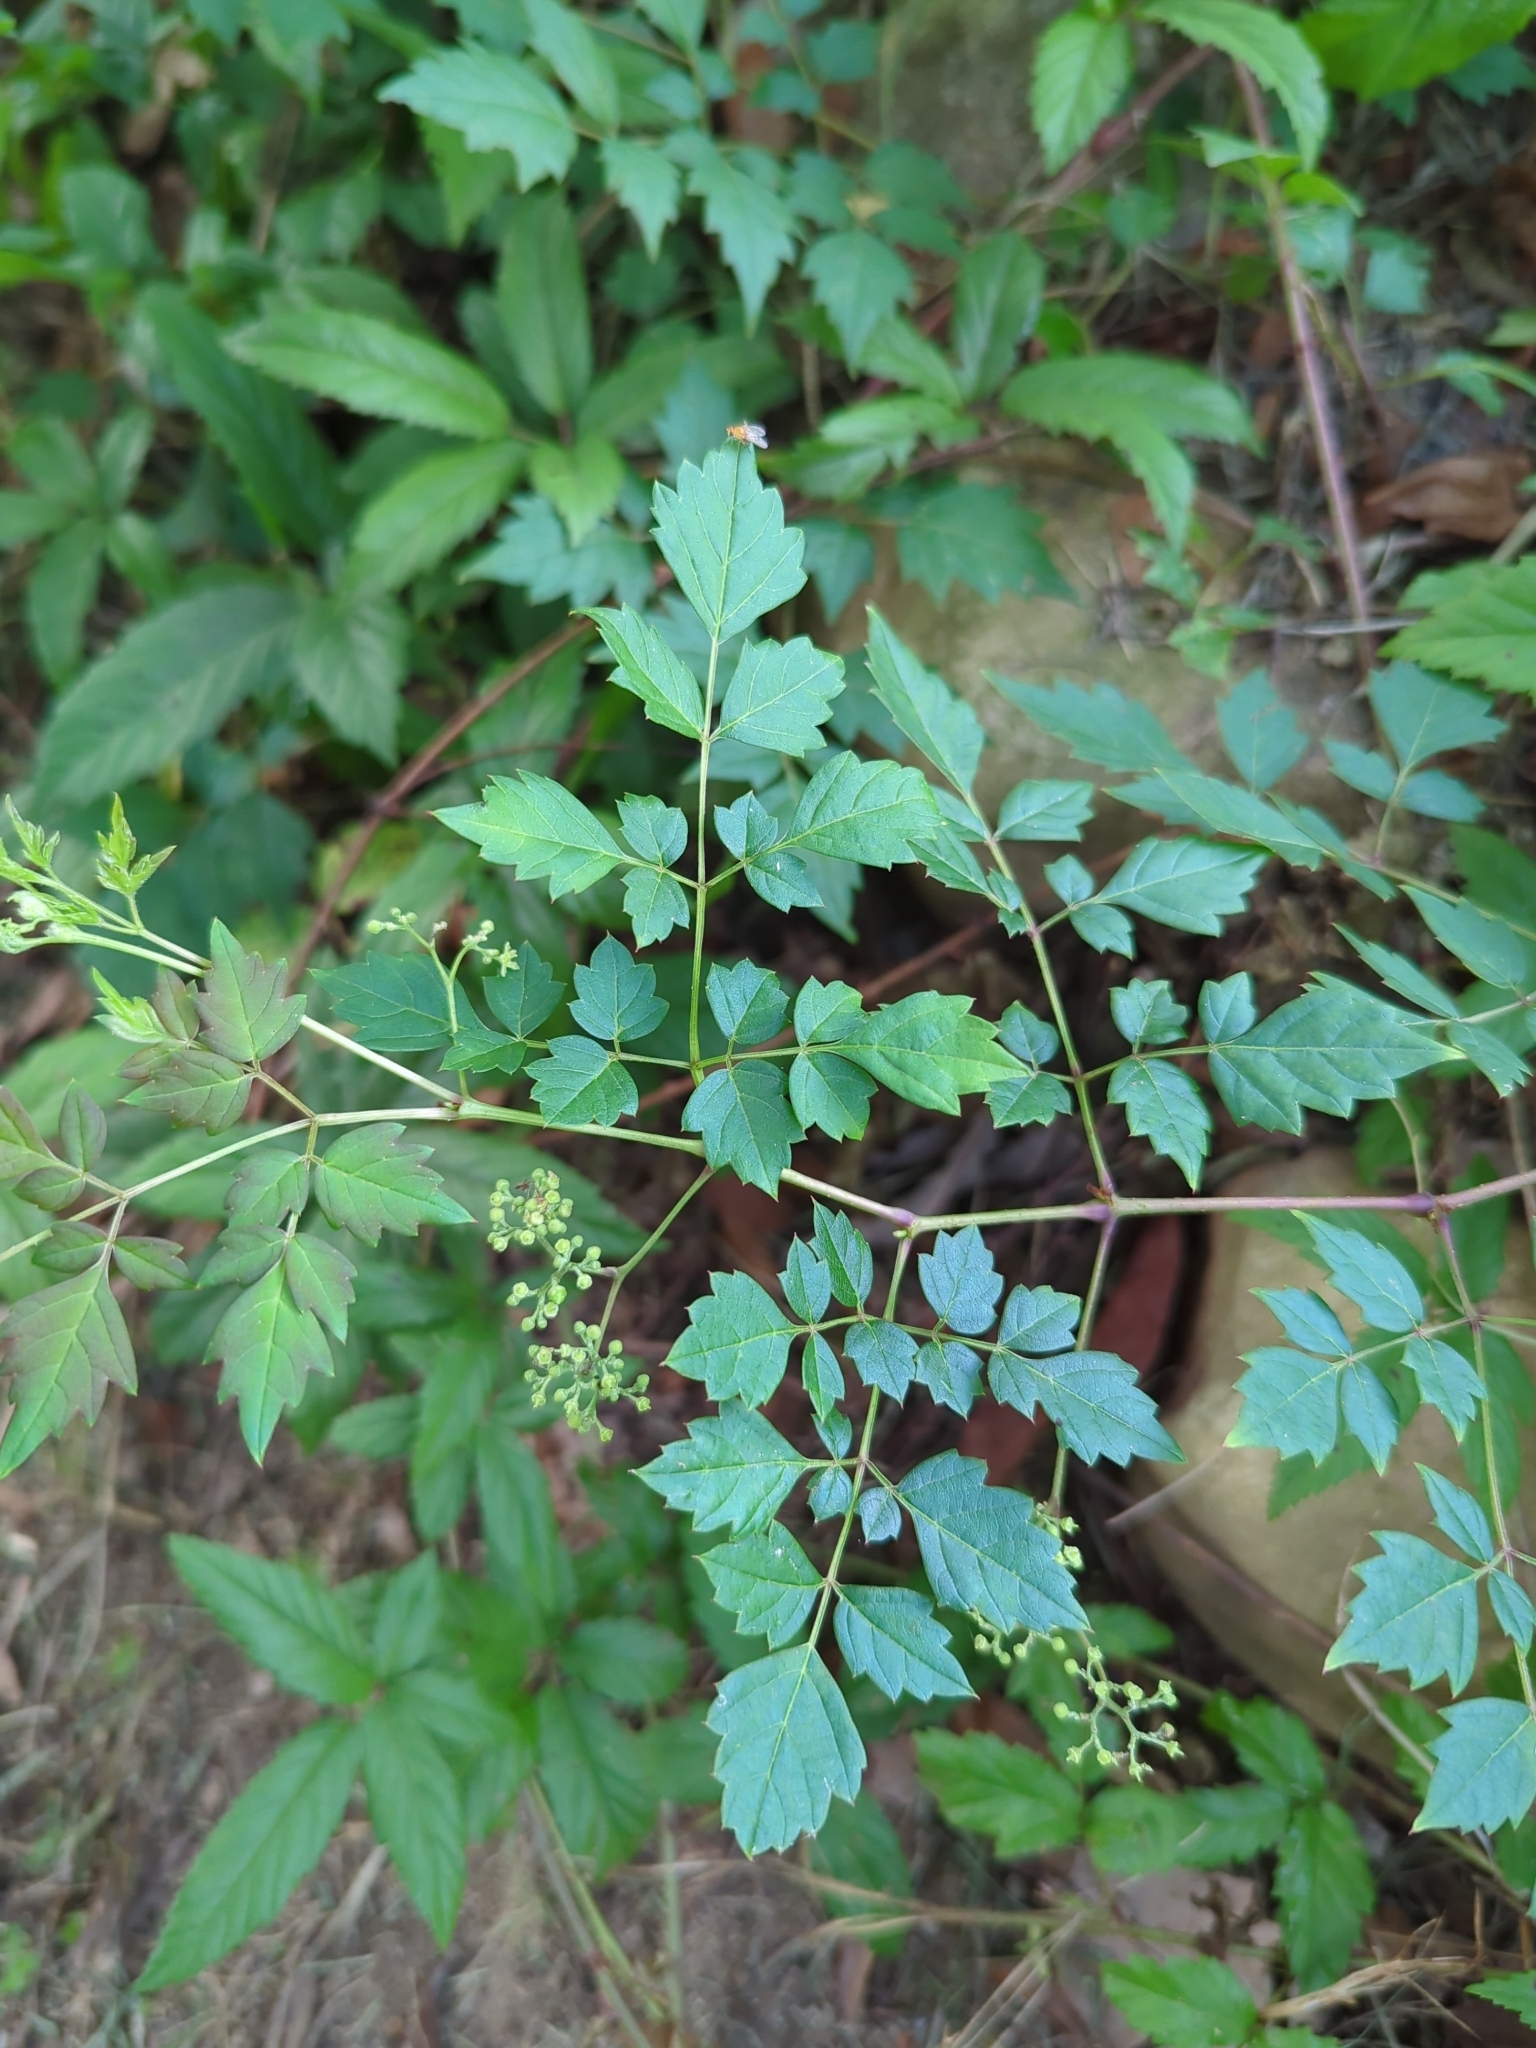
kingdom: Plantae
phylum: Tracheophyta
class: Magnoliopsida
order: Vitales
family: Vitaceae
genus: Nekemias
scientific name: Nekemias arborea
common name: Peppervine
